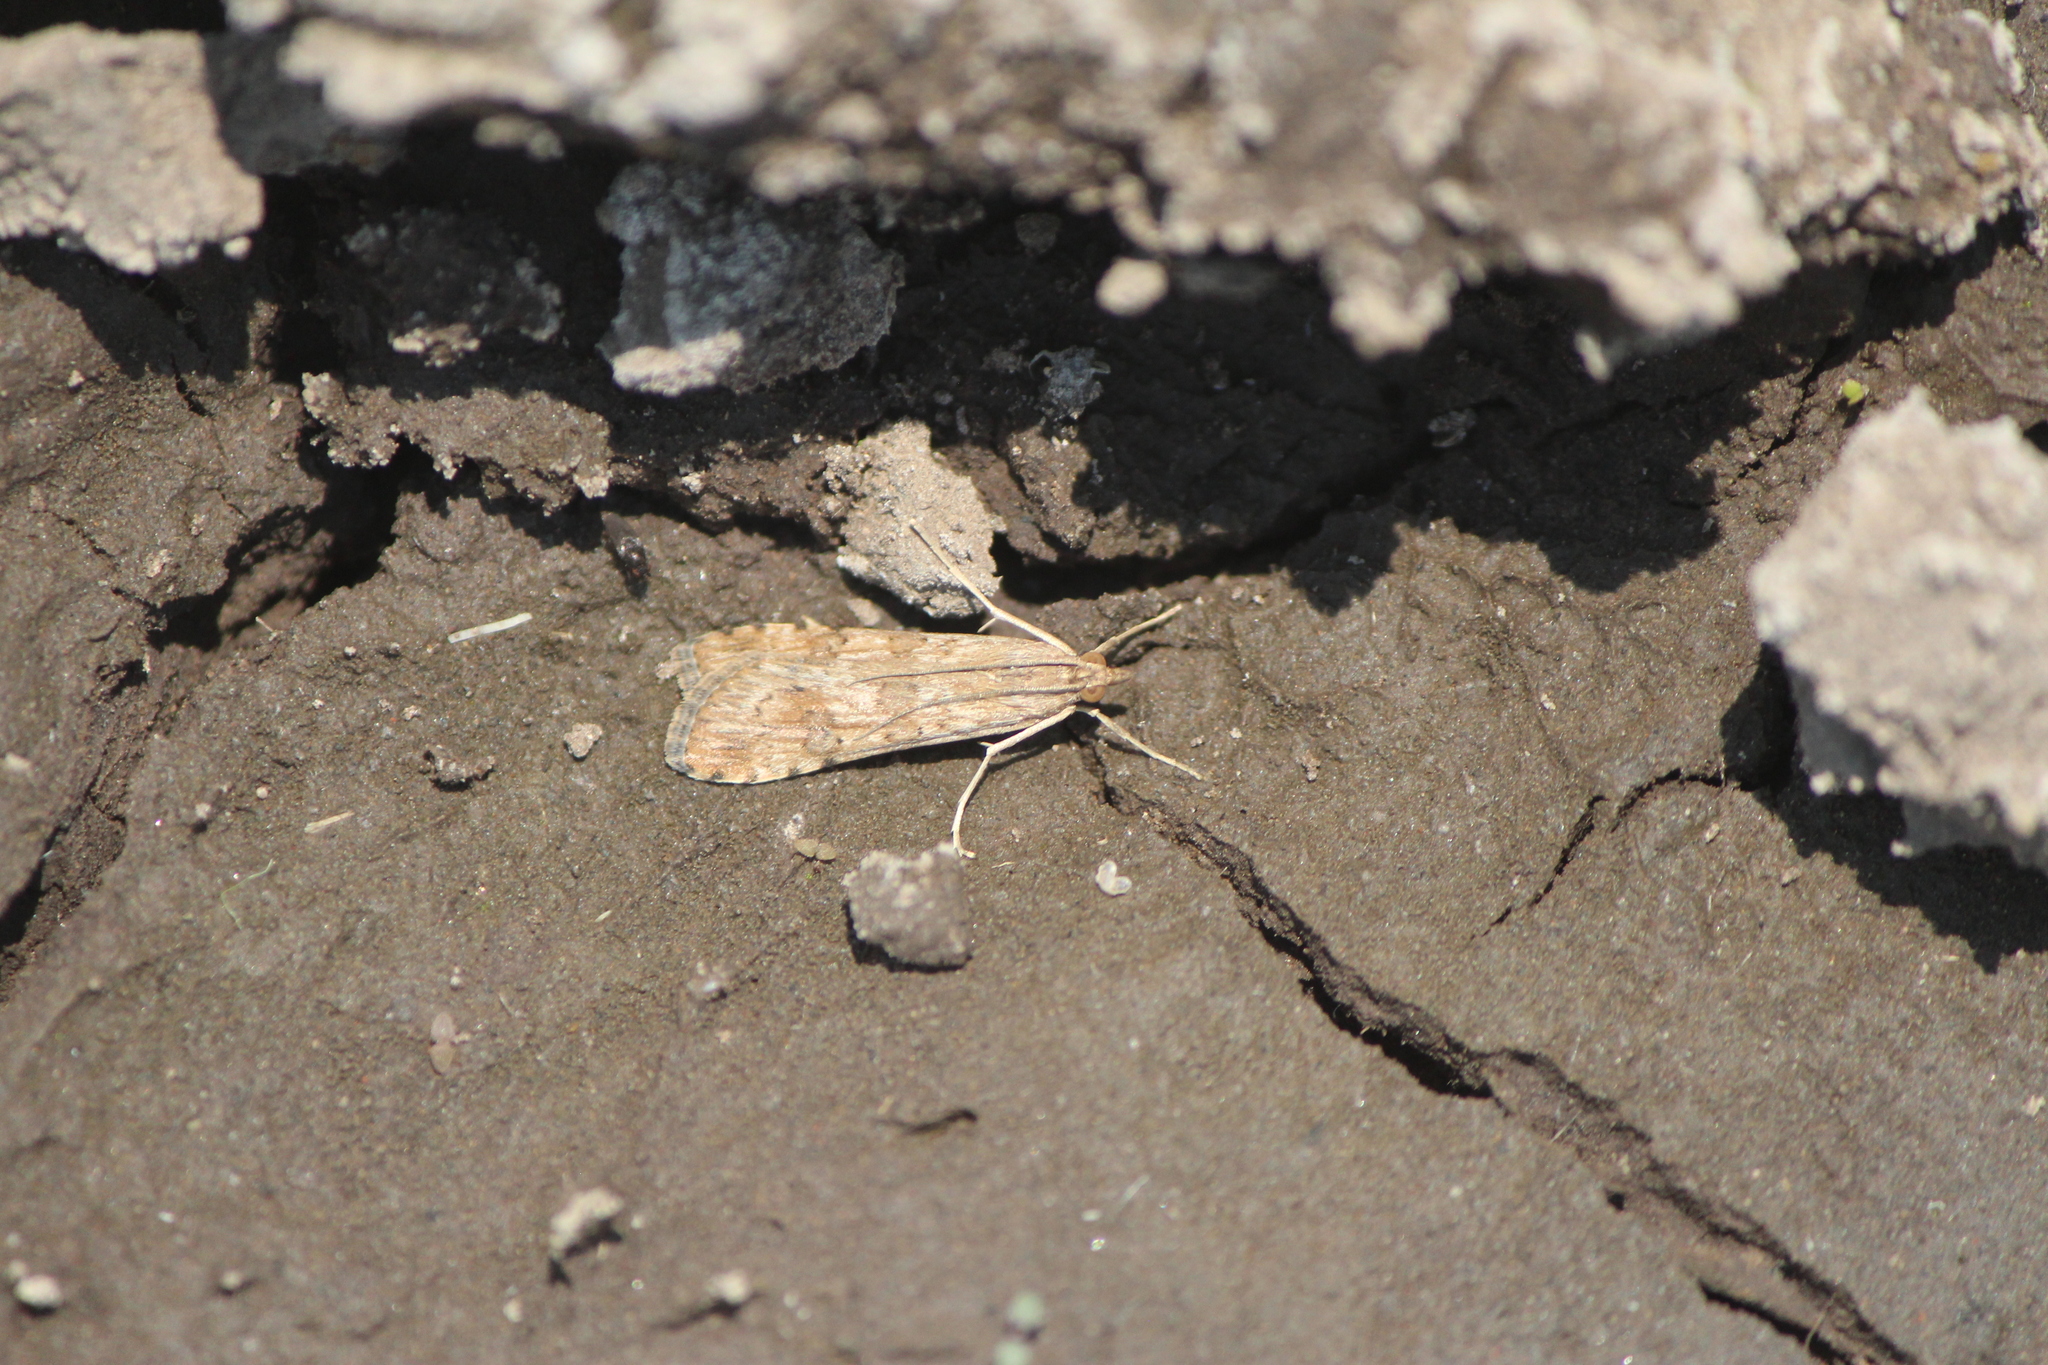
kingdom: Animalia
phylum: Arthropoda
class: Insecta
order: Lepidoptera
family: Crambidae
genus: Nomophila
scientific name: Nomophila nearctica
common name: American rush veneer
